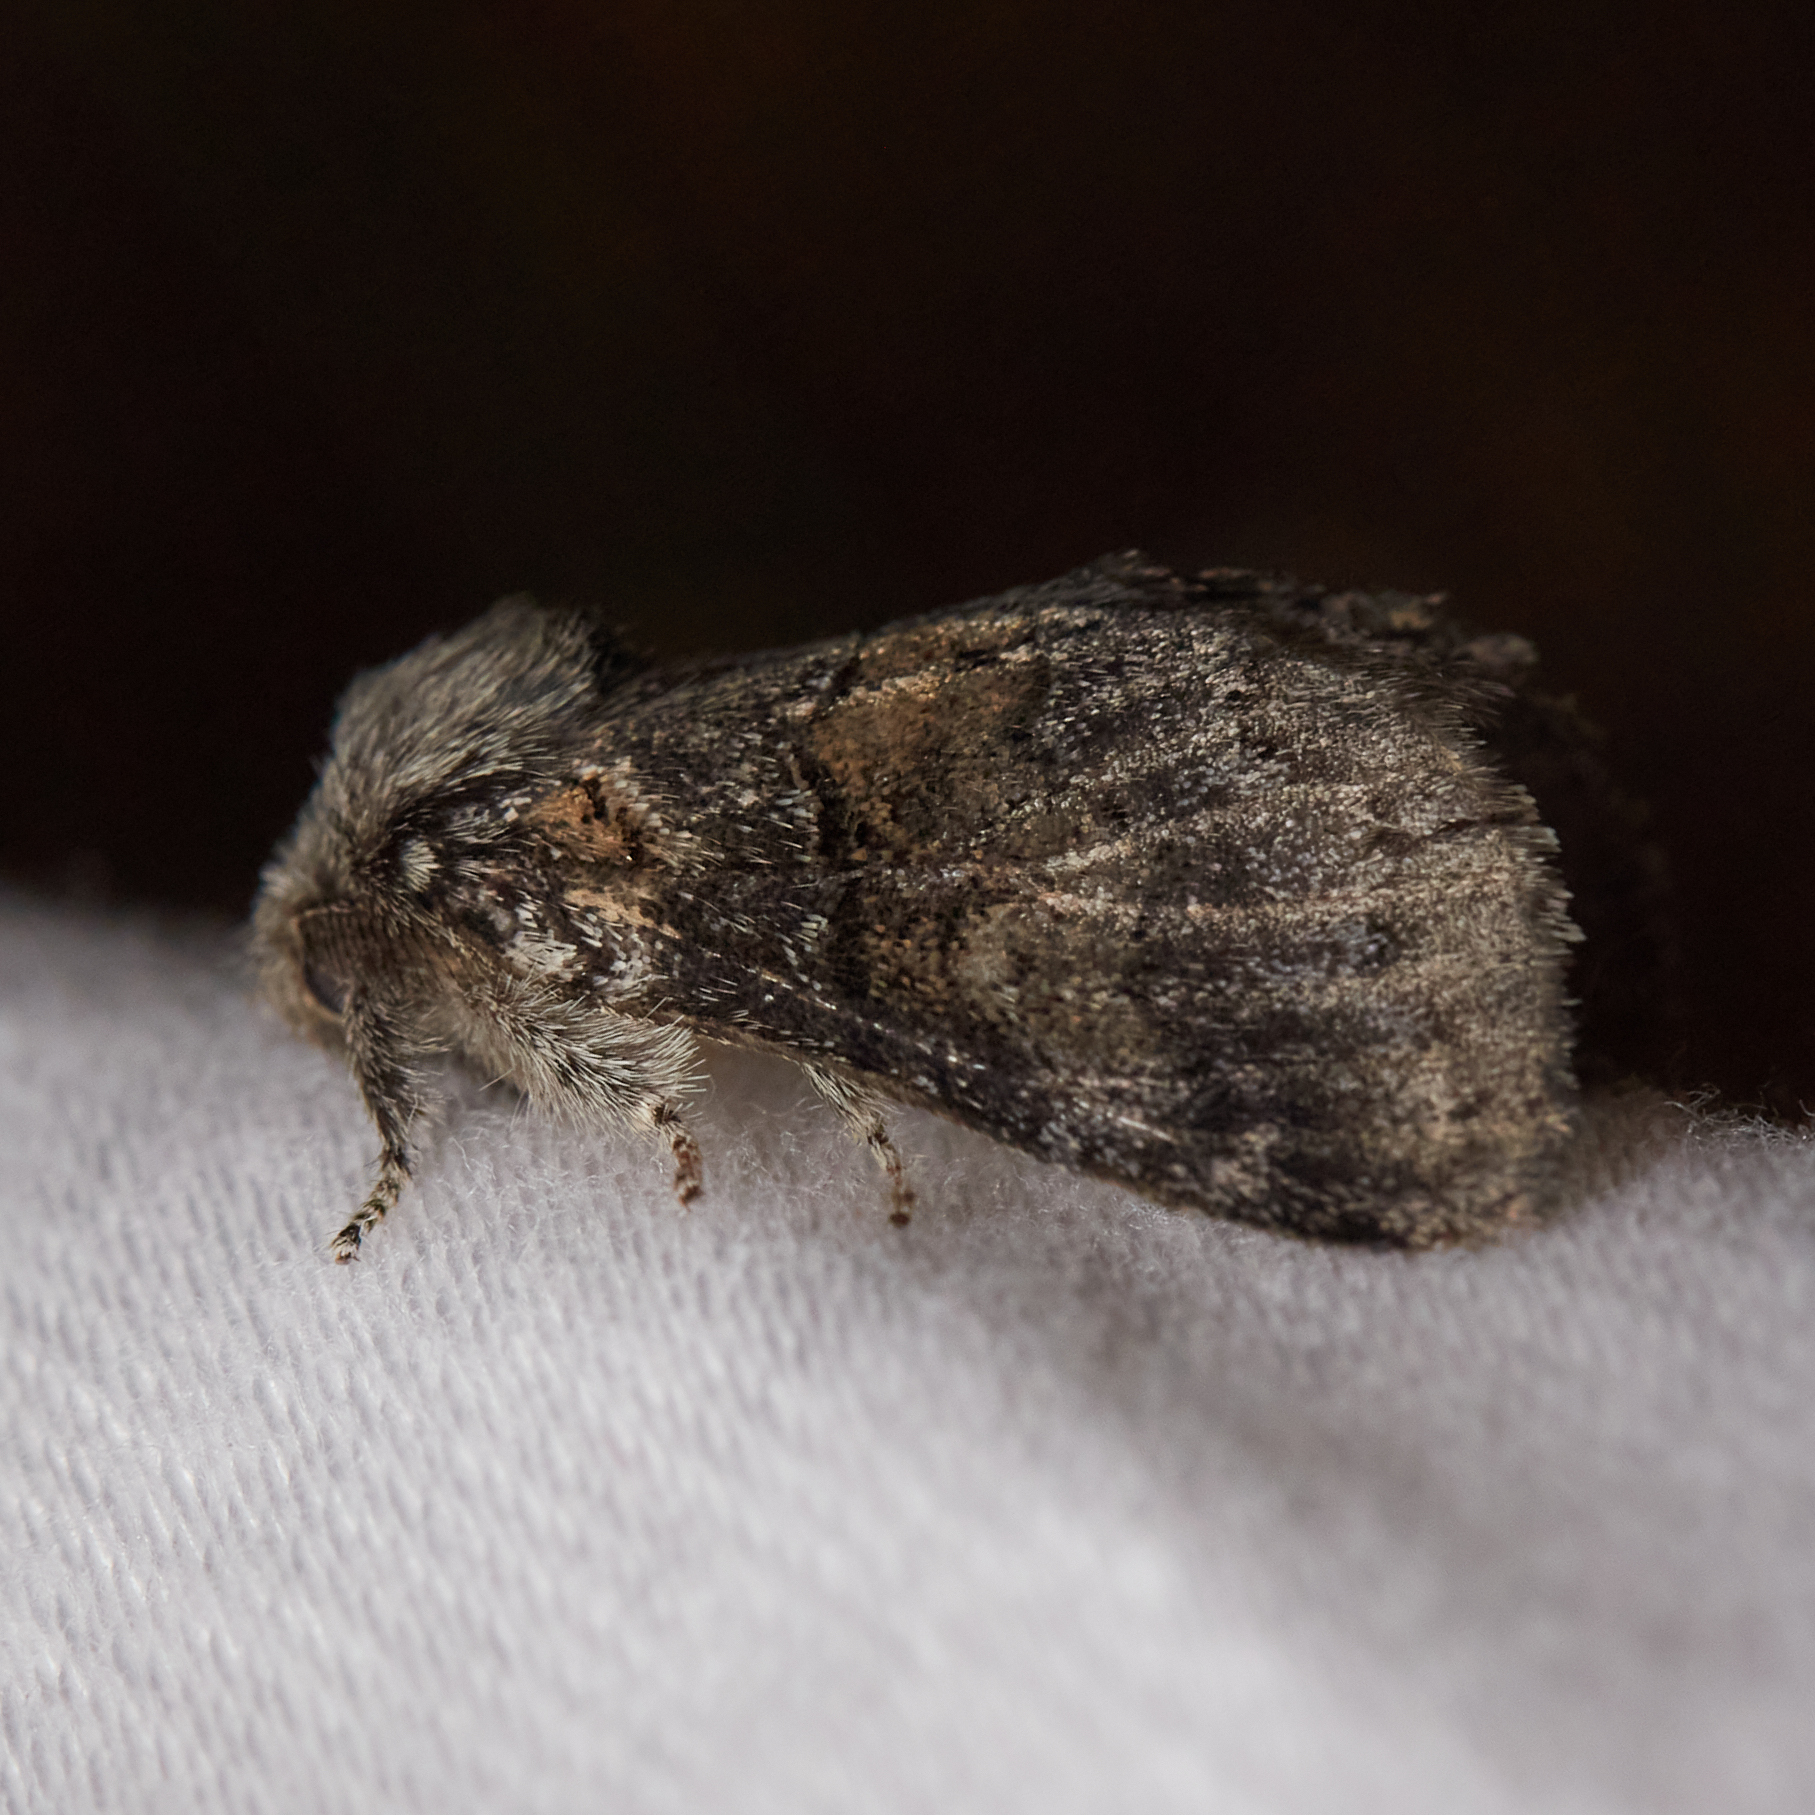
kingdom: Animalia
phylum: Arthropoda
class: Insecta
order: Lepidoptera
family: Notodontidae
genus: Gluphisia
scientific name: Gluphisia septentrionis
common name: Common gluphisia
